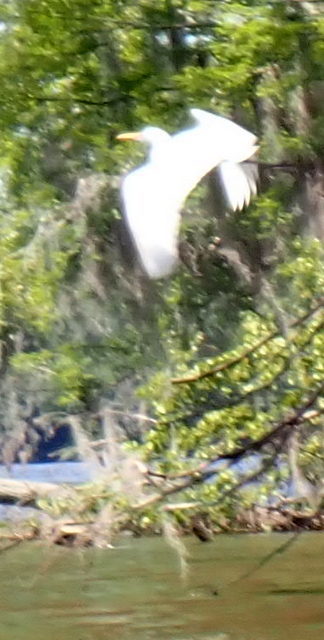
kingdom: Animalia
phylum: Chordata
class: Aves
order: Pelecaniformes
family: Ardeidae
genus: Ardea
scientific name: Ardea alba
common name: Great egret
